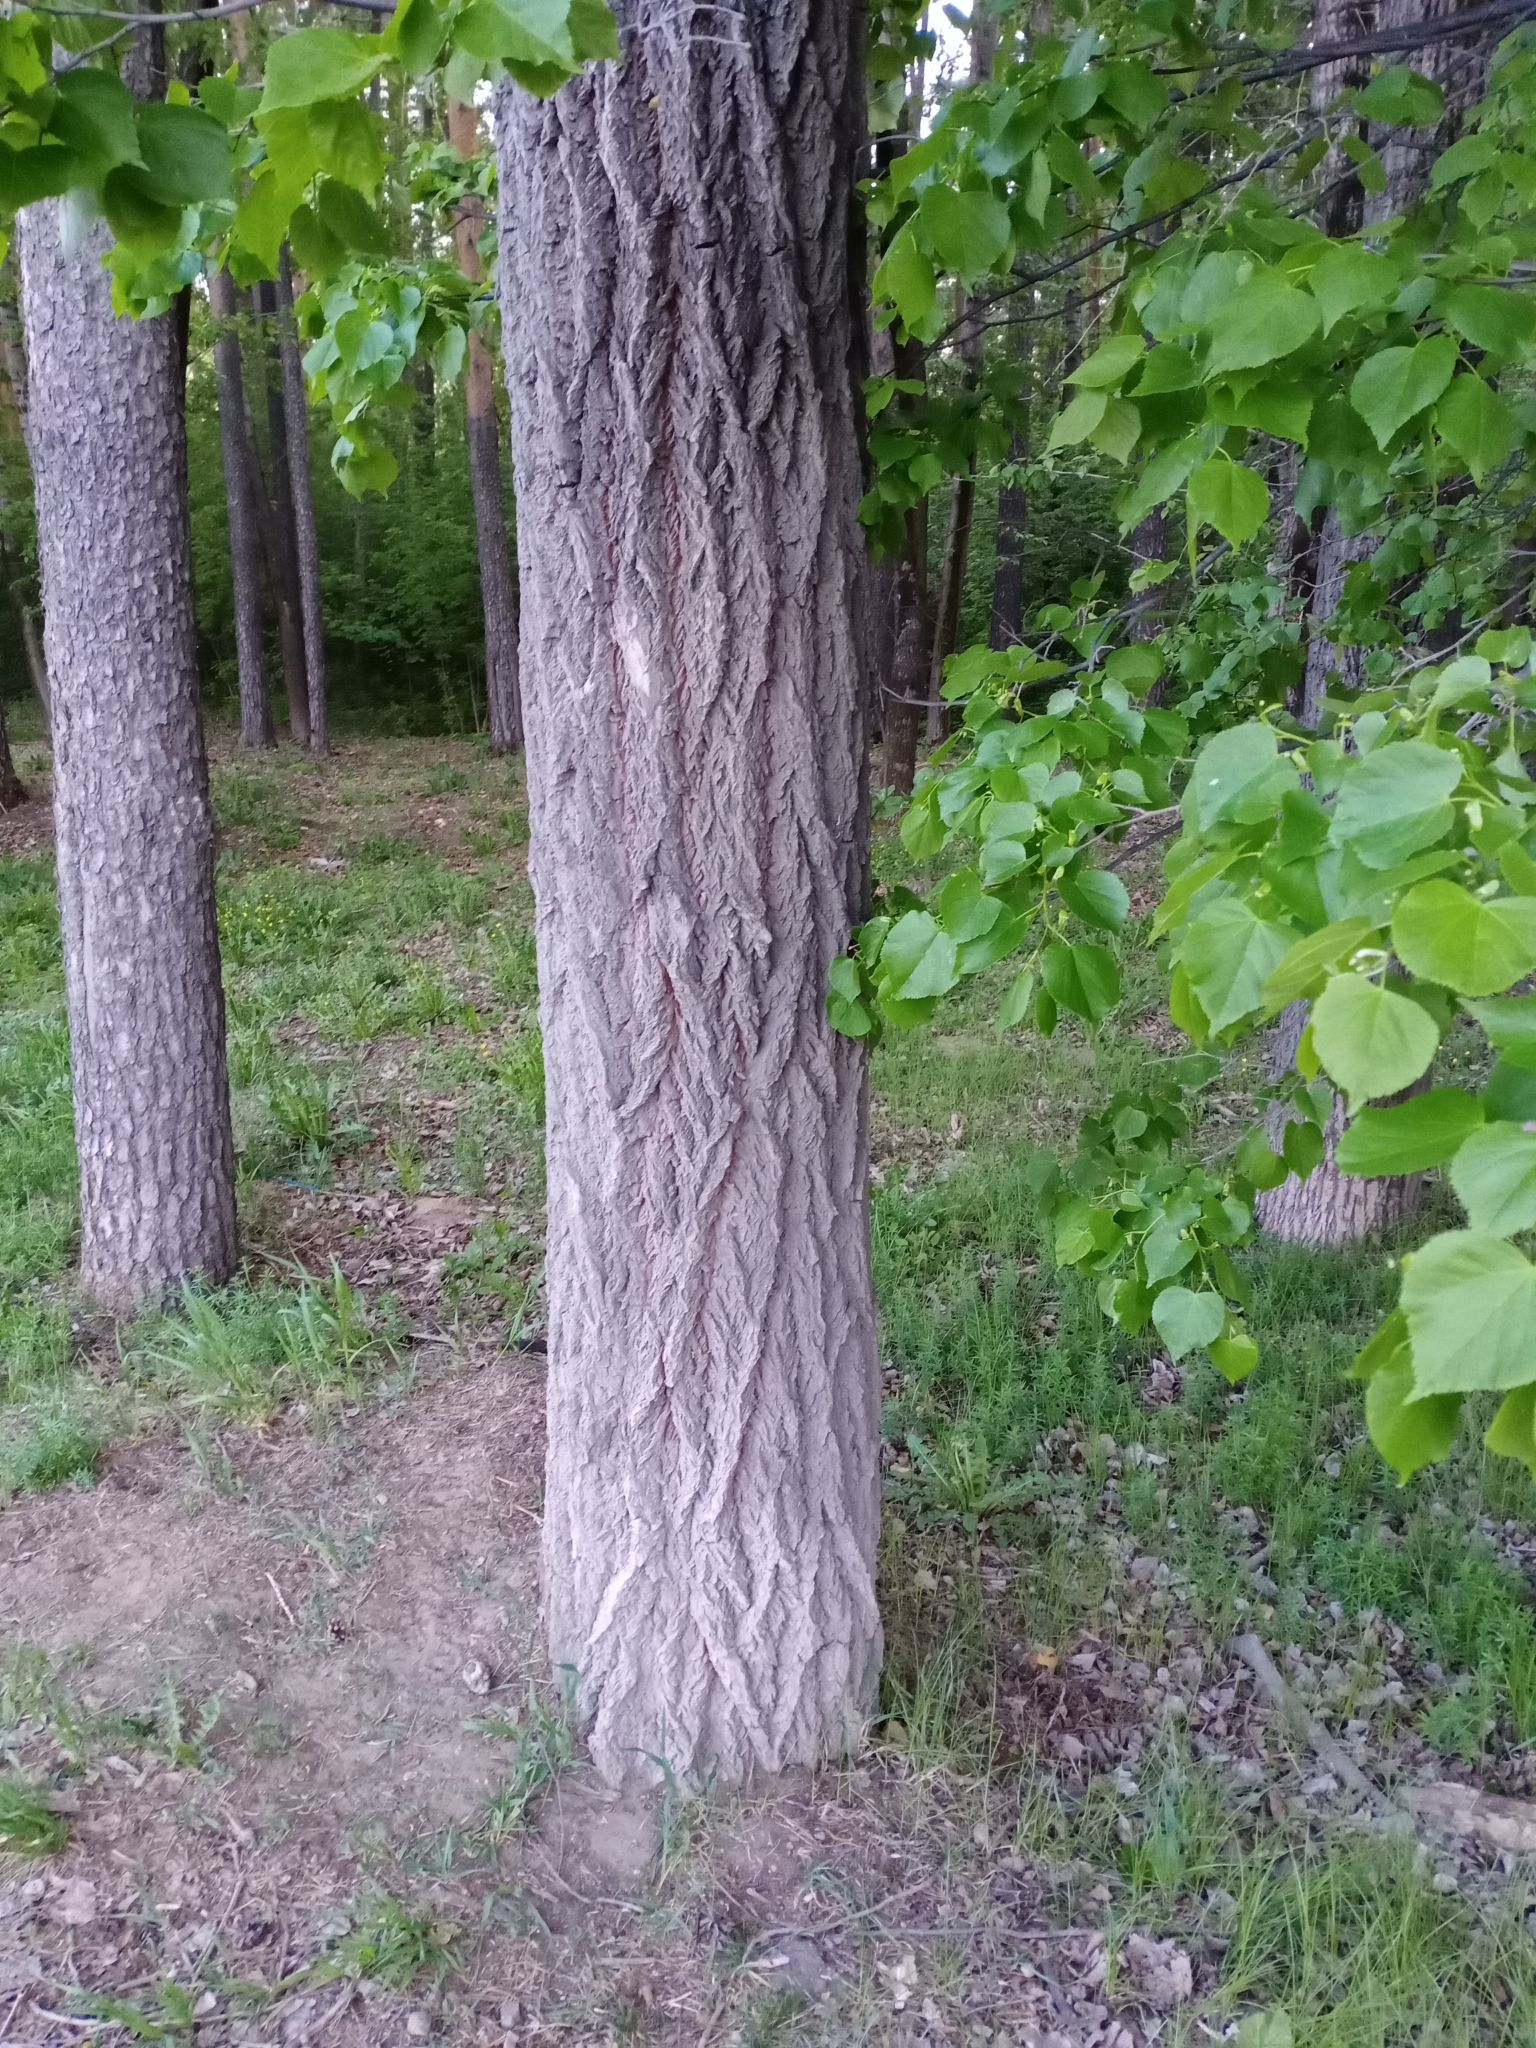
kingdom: Plantae
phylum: Tracheophyta
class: Magnoliopsida
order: Malvales
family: Malvaceae
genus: Tilia
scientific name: Tilia cordata
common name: Small-leaved lime
